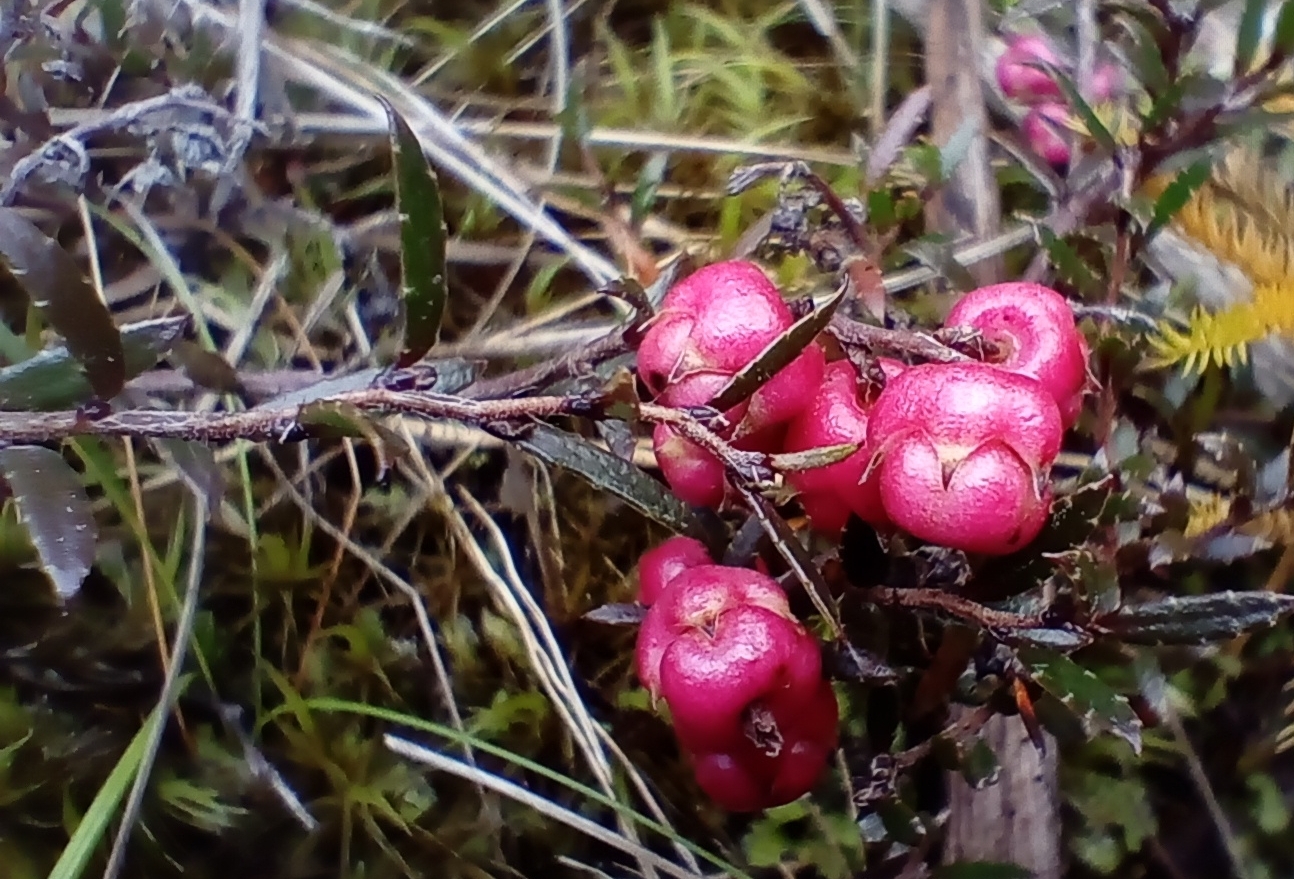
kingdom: Plantae
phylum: Tracheophyta
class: Magnoliopsida
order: Ericales
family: Ericaceae
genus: Gaultheria
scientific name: Gaultheria macrostigma
